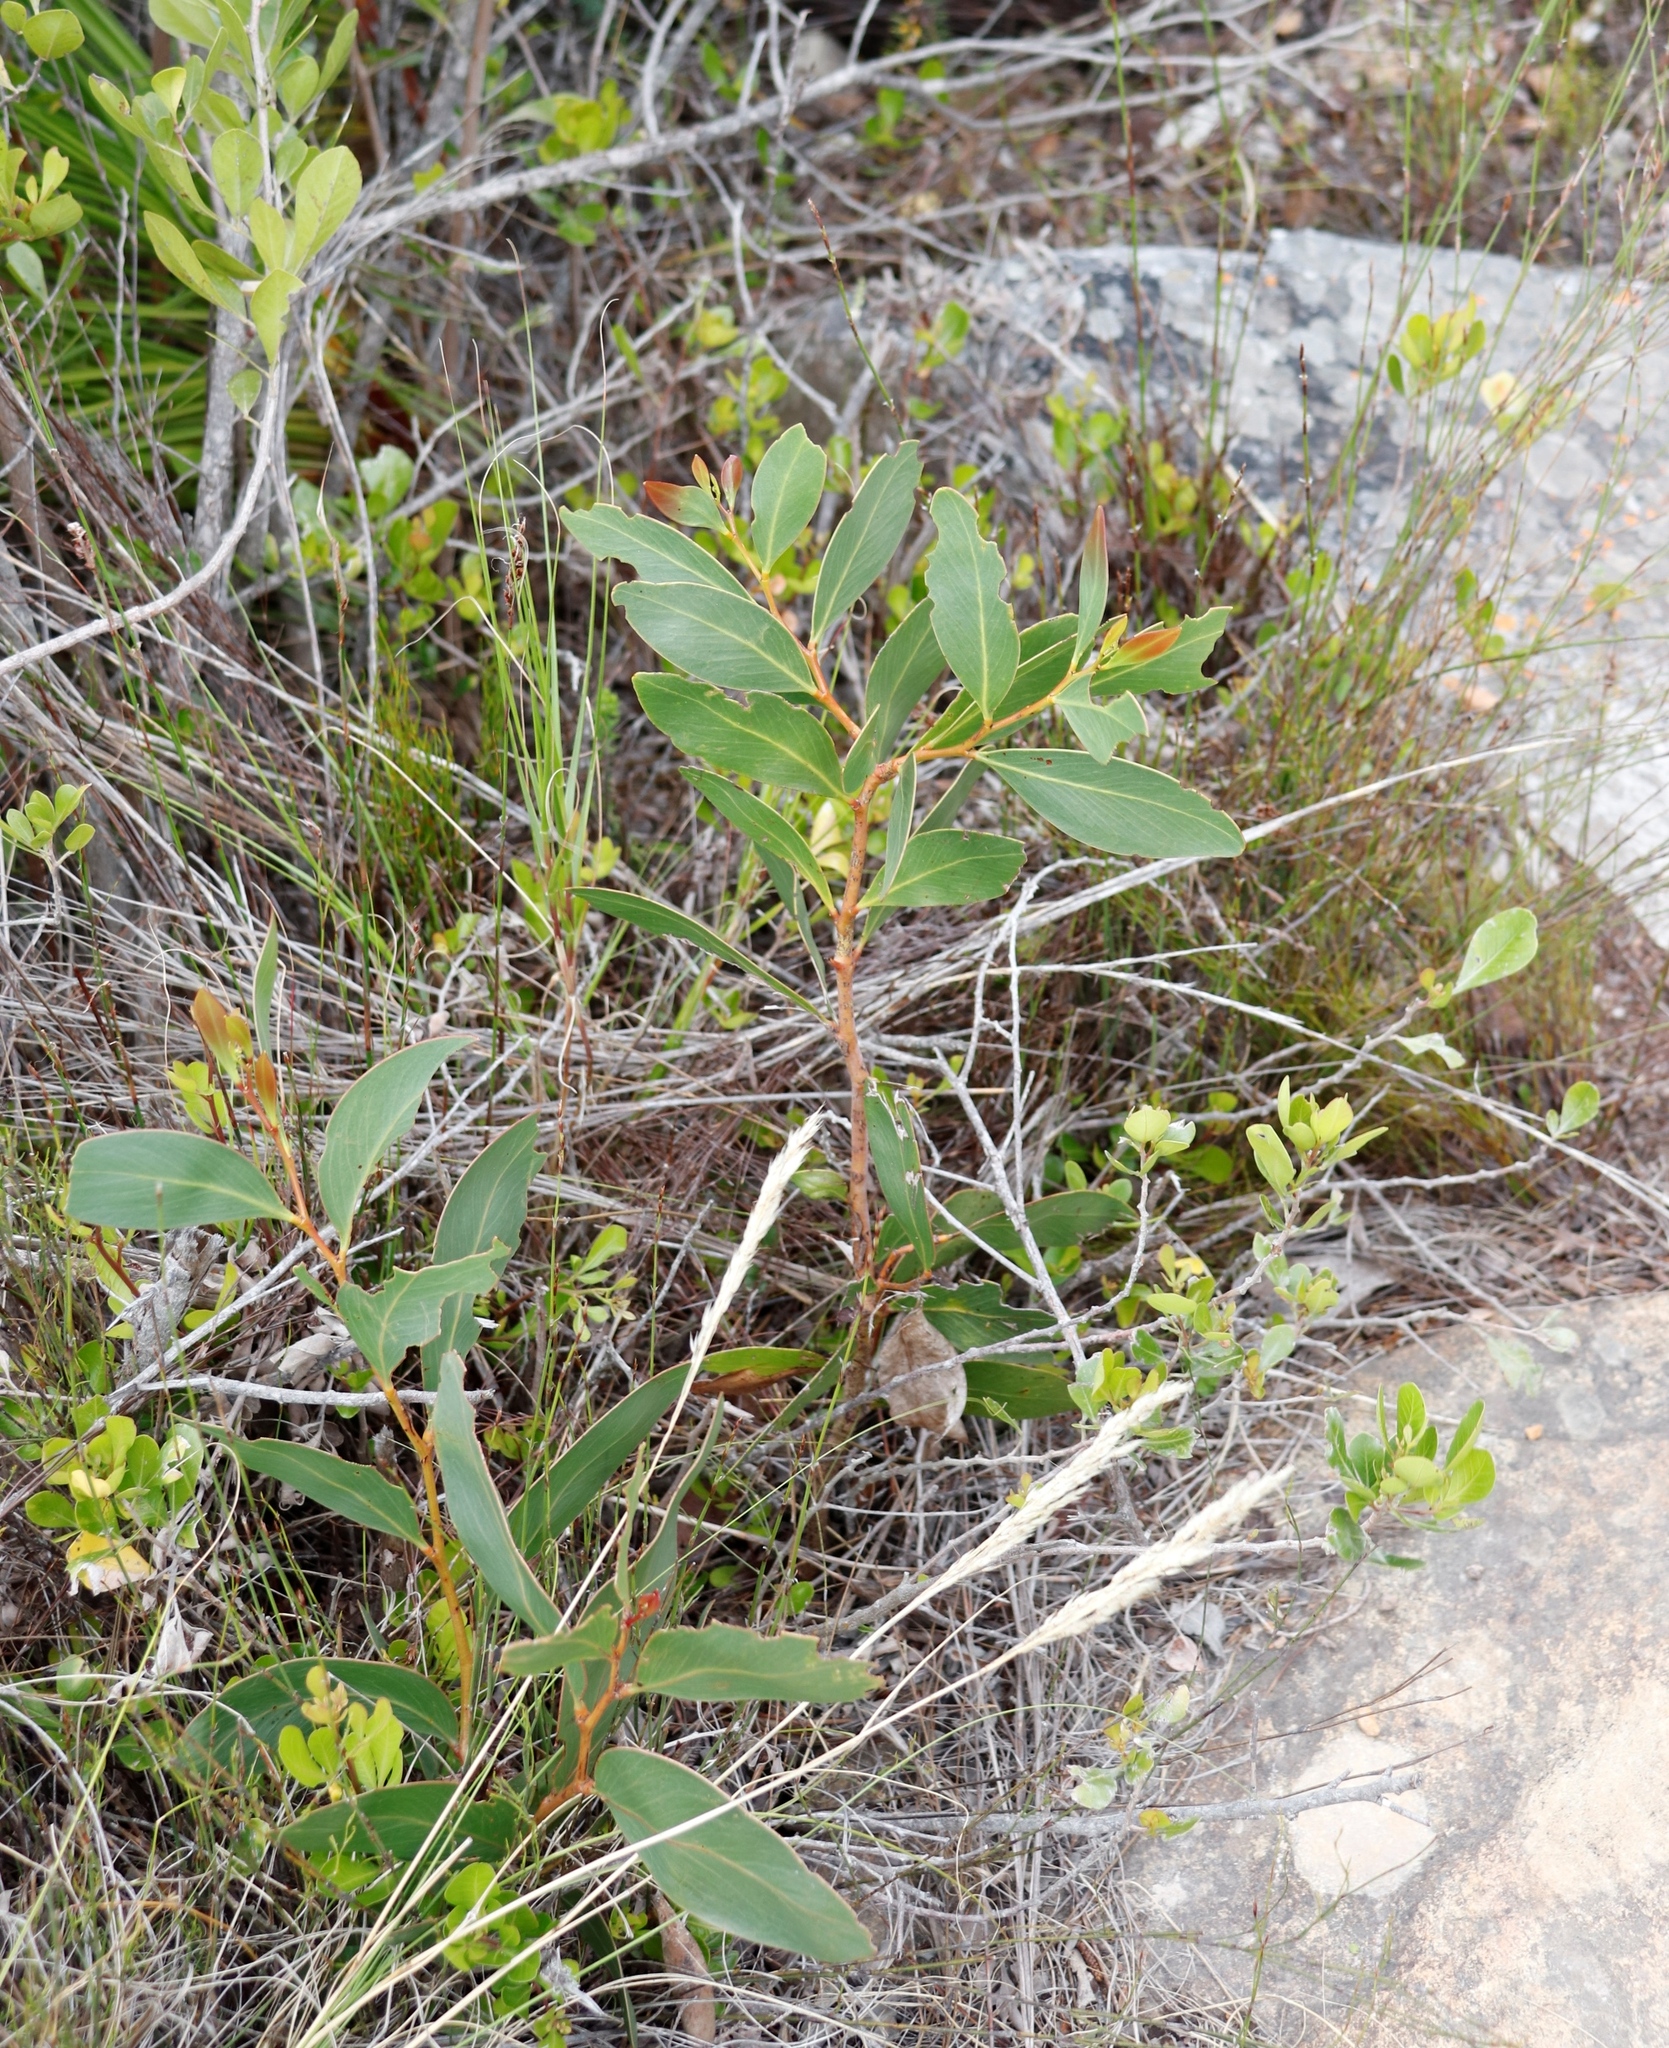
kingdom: Plantae
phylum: Tracheophyta
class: Magnoliopsida
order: Fabales
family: Fabaceae
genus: Acacia
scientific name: Acacia pycnantha
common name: Golden wattle
